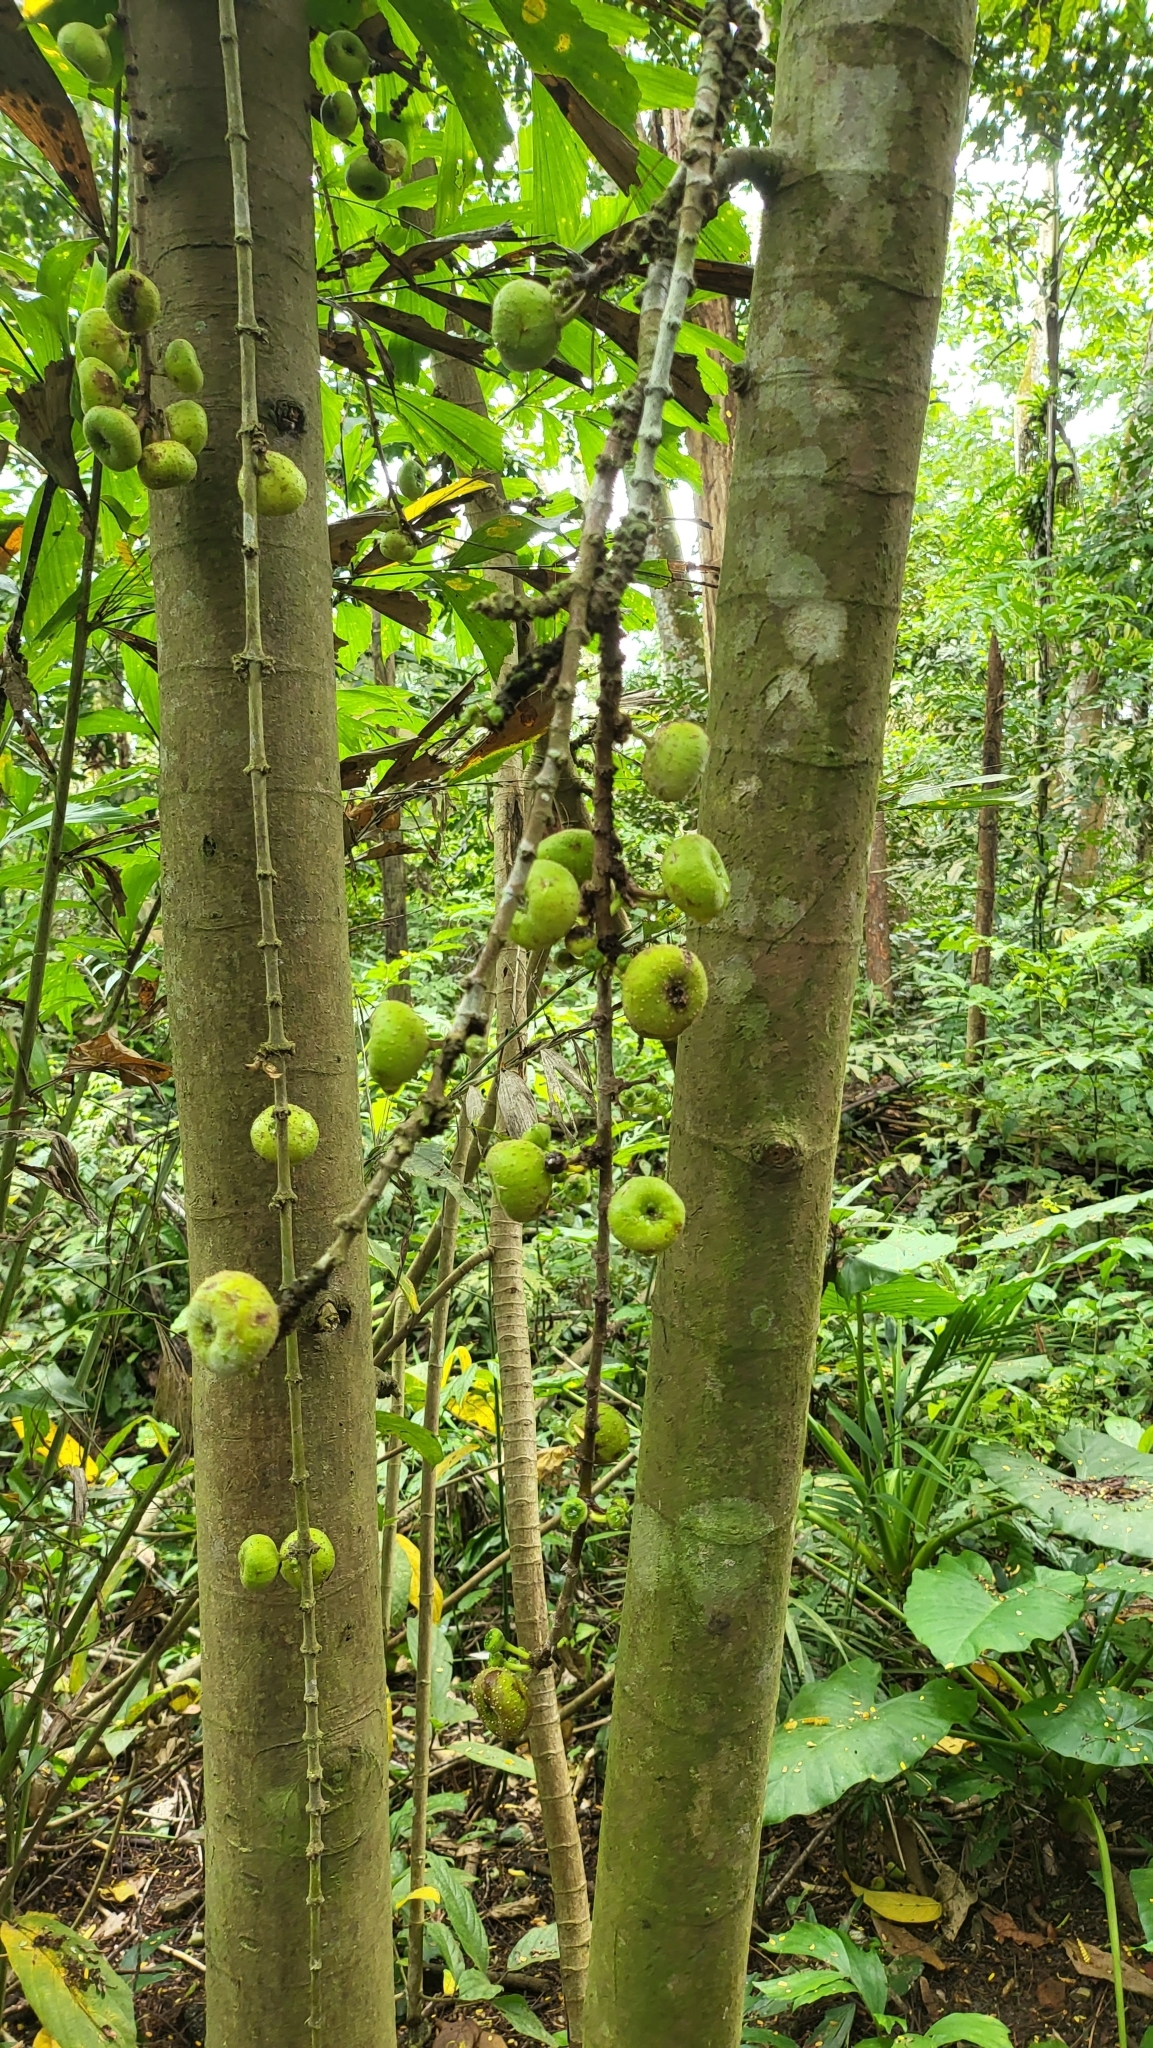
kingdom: Plantae
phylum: Tracheophyta
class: Magnoliopsida
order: Rosales
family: Moraceae
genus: Ficus
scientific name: Ficus hispida
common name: Hairy fig
